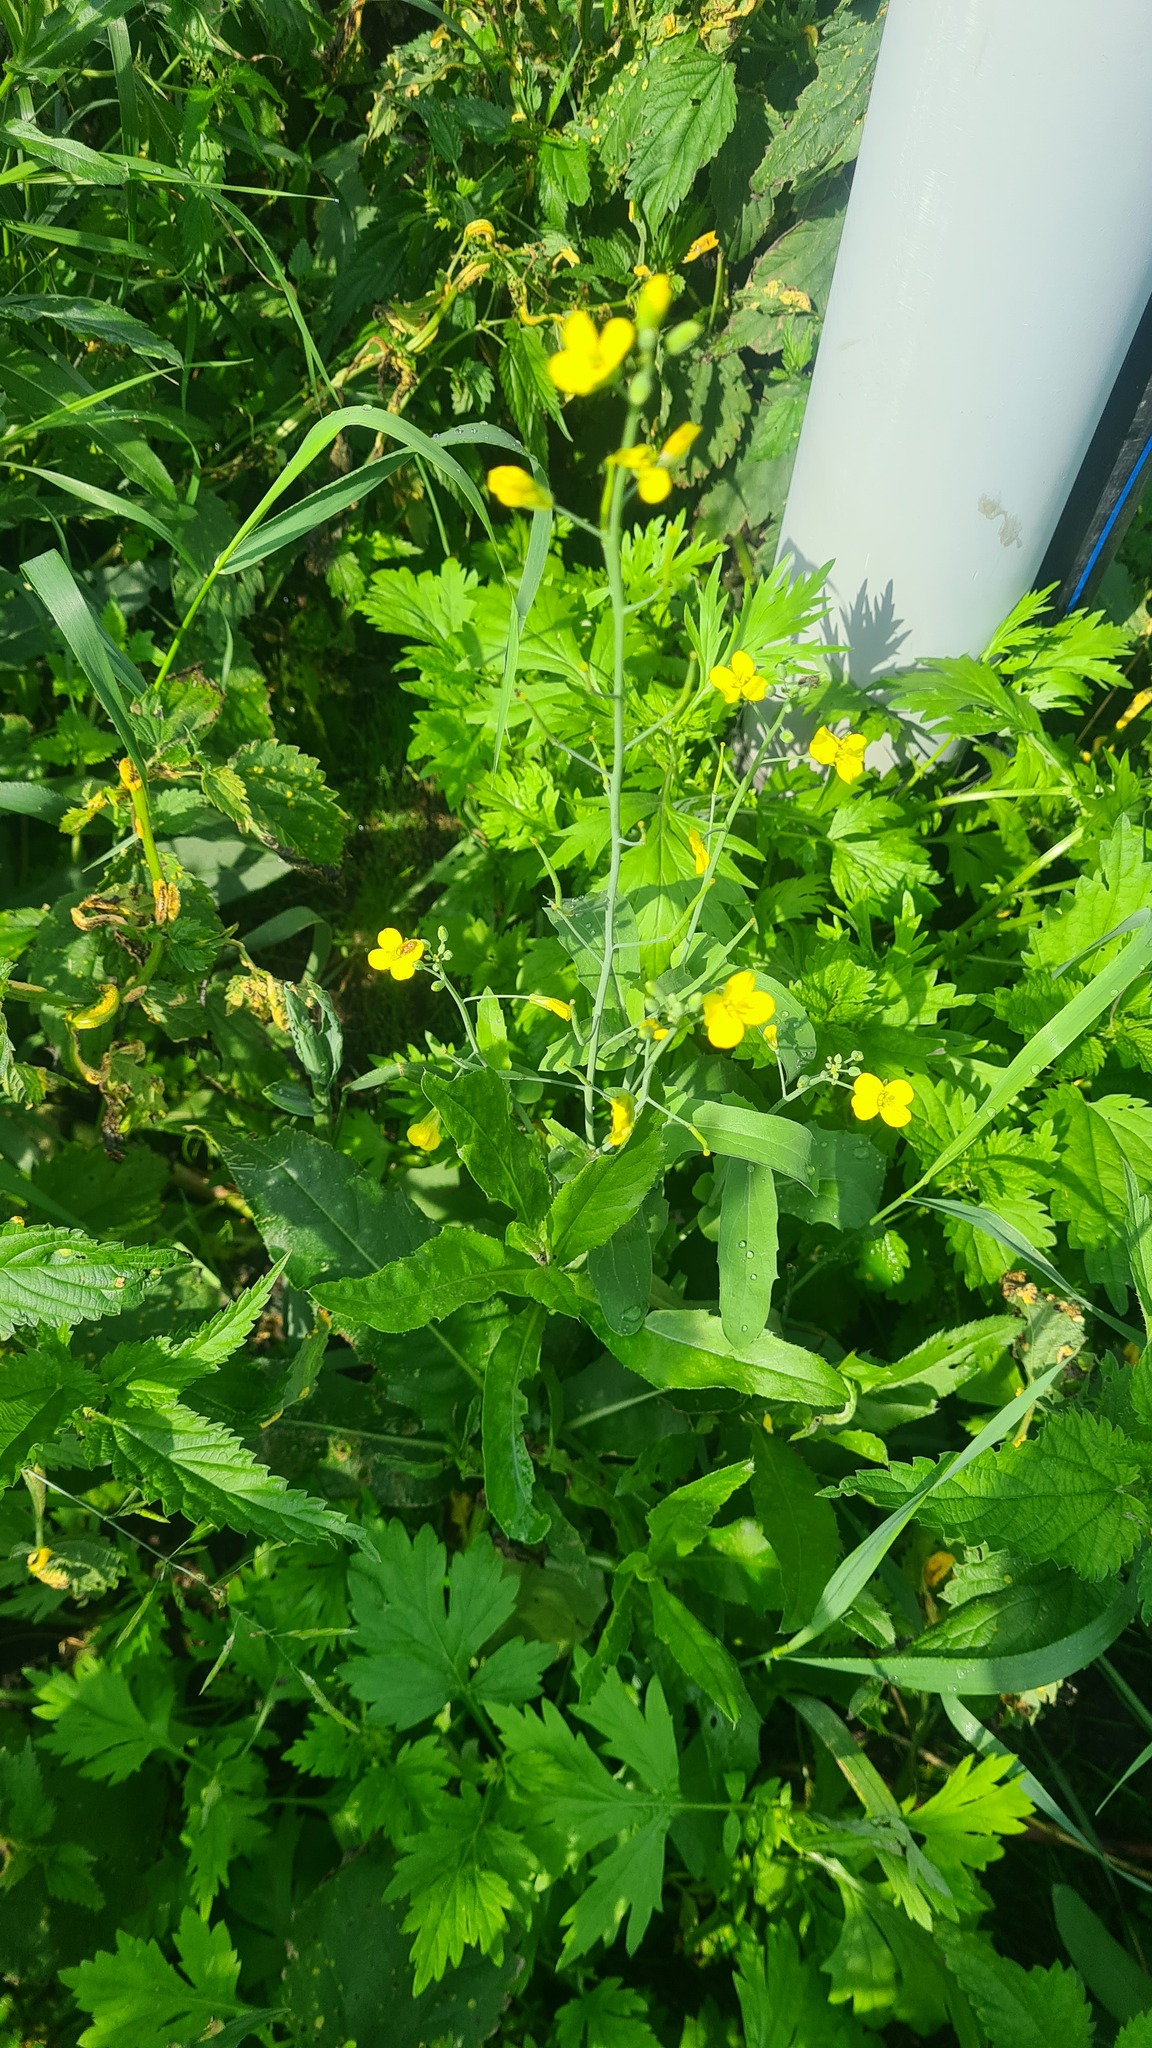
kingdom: Plantae
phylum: Tracheophyta
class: Magnoliopsida
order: Ranunculales
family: Papaveraceae
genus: Chelidonium
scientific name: Chelidonium majus
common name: Greater celandine
